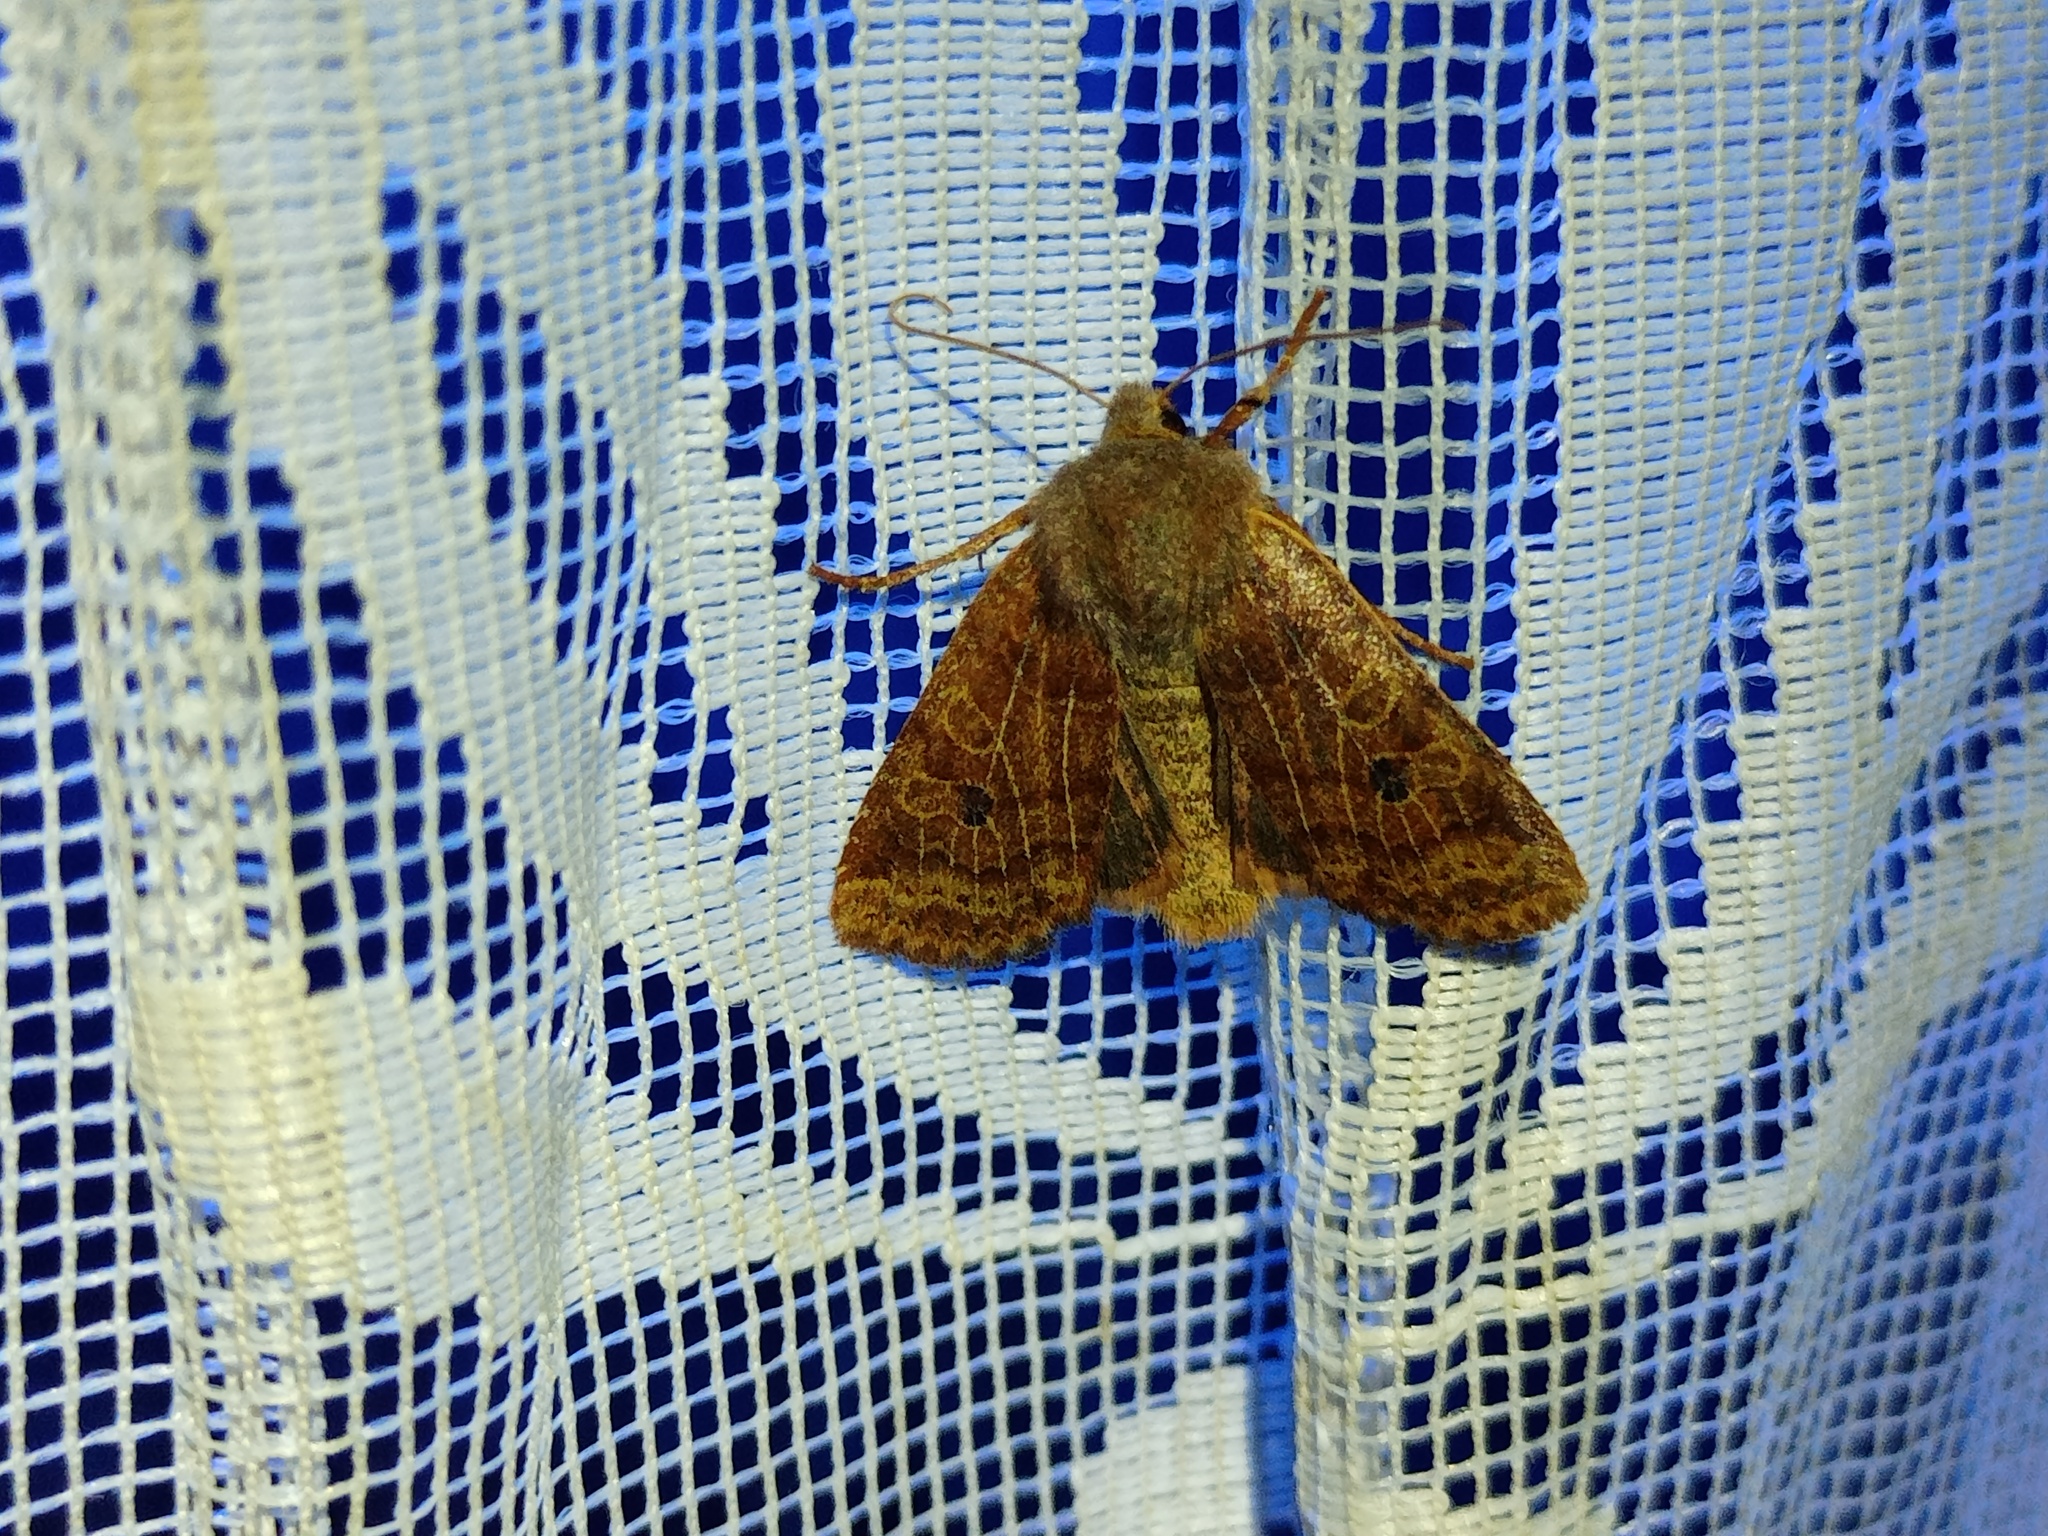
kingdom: Animalia
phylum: Arthropoda
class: Insecta
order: Lepidoptera
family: Noctuidae
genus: Conistra
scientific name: Conistra vaccinii
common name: Chestnut
